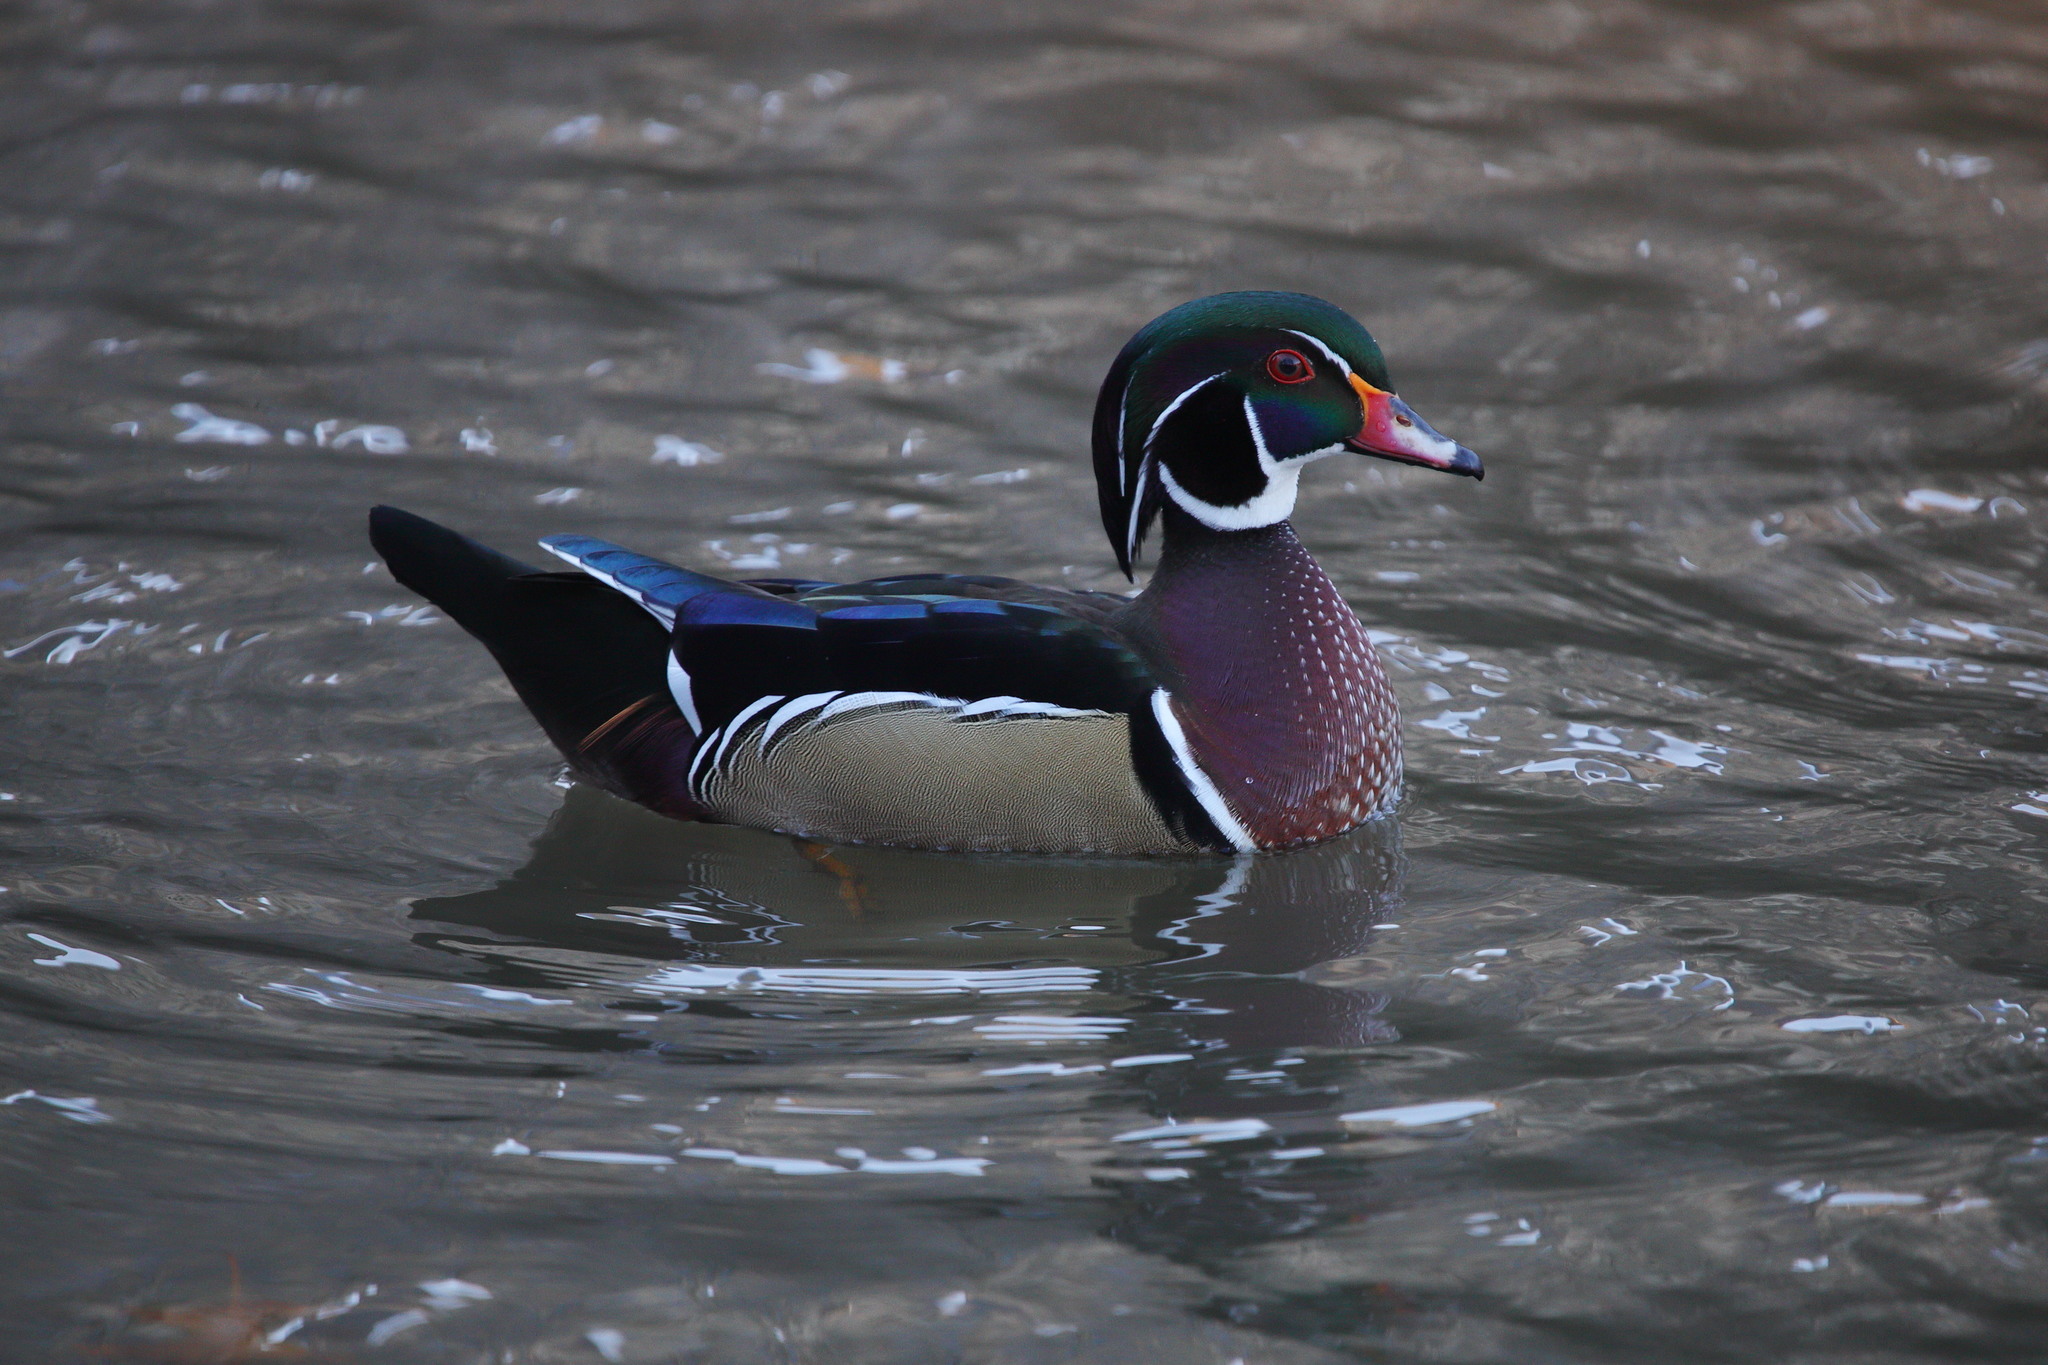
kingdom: Animalia
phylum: Chordata
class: Aves
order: Anseriformes
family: Anatidae
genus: Aix
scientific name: Aix sponsa
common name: Wood duck
